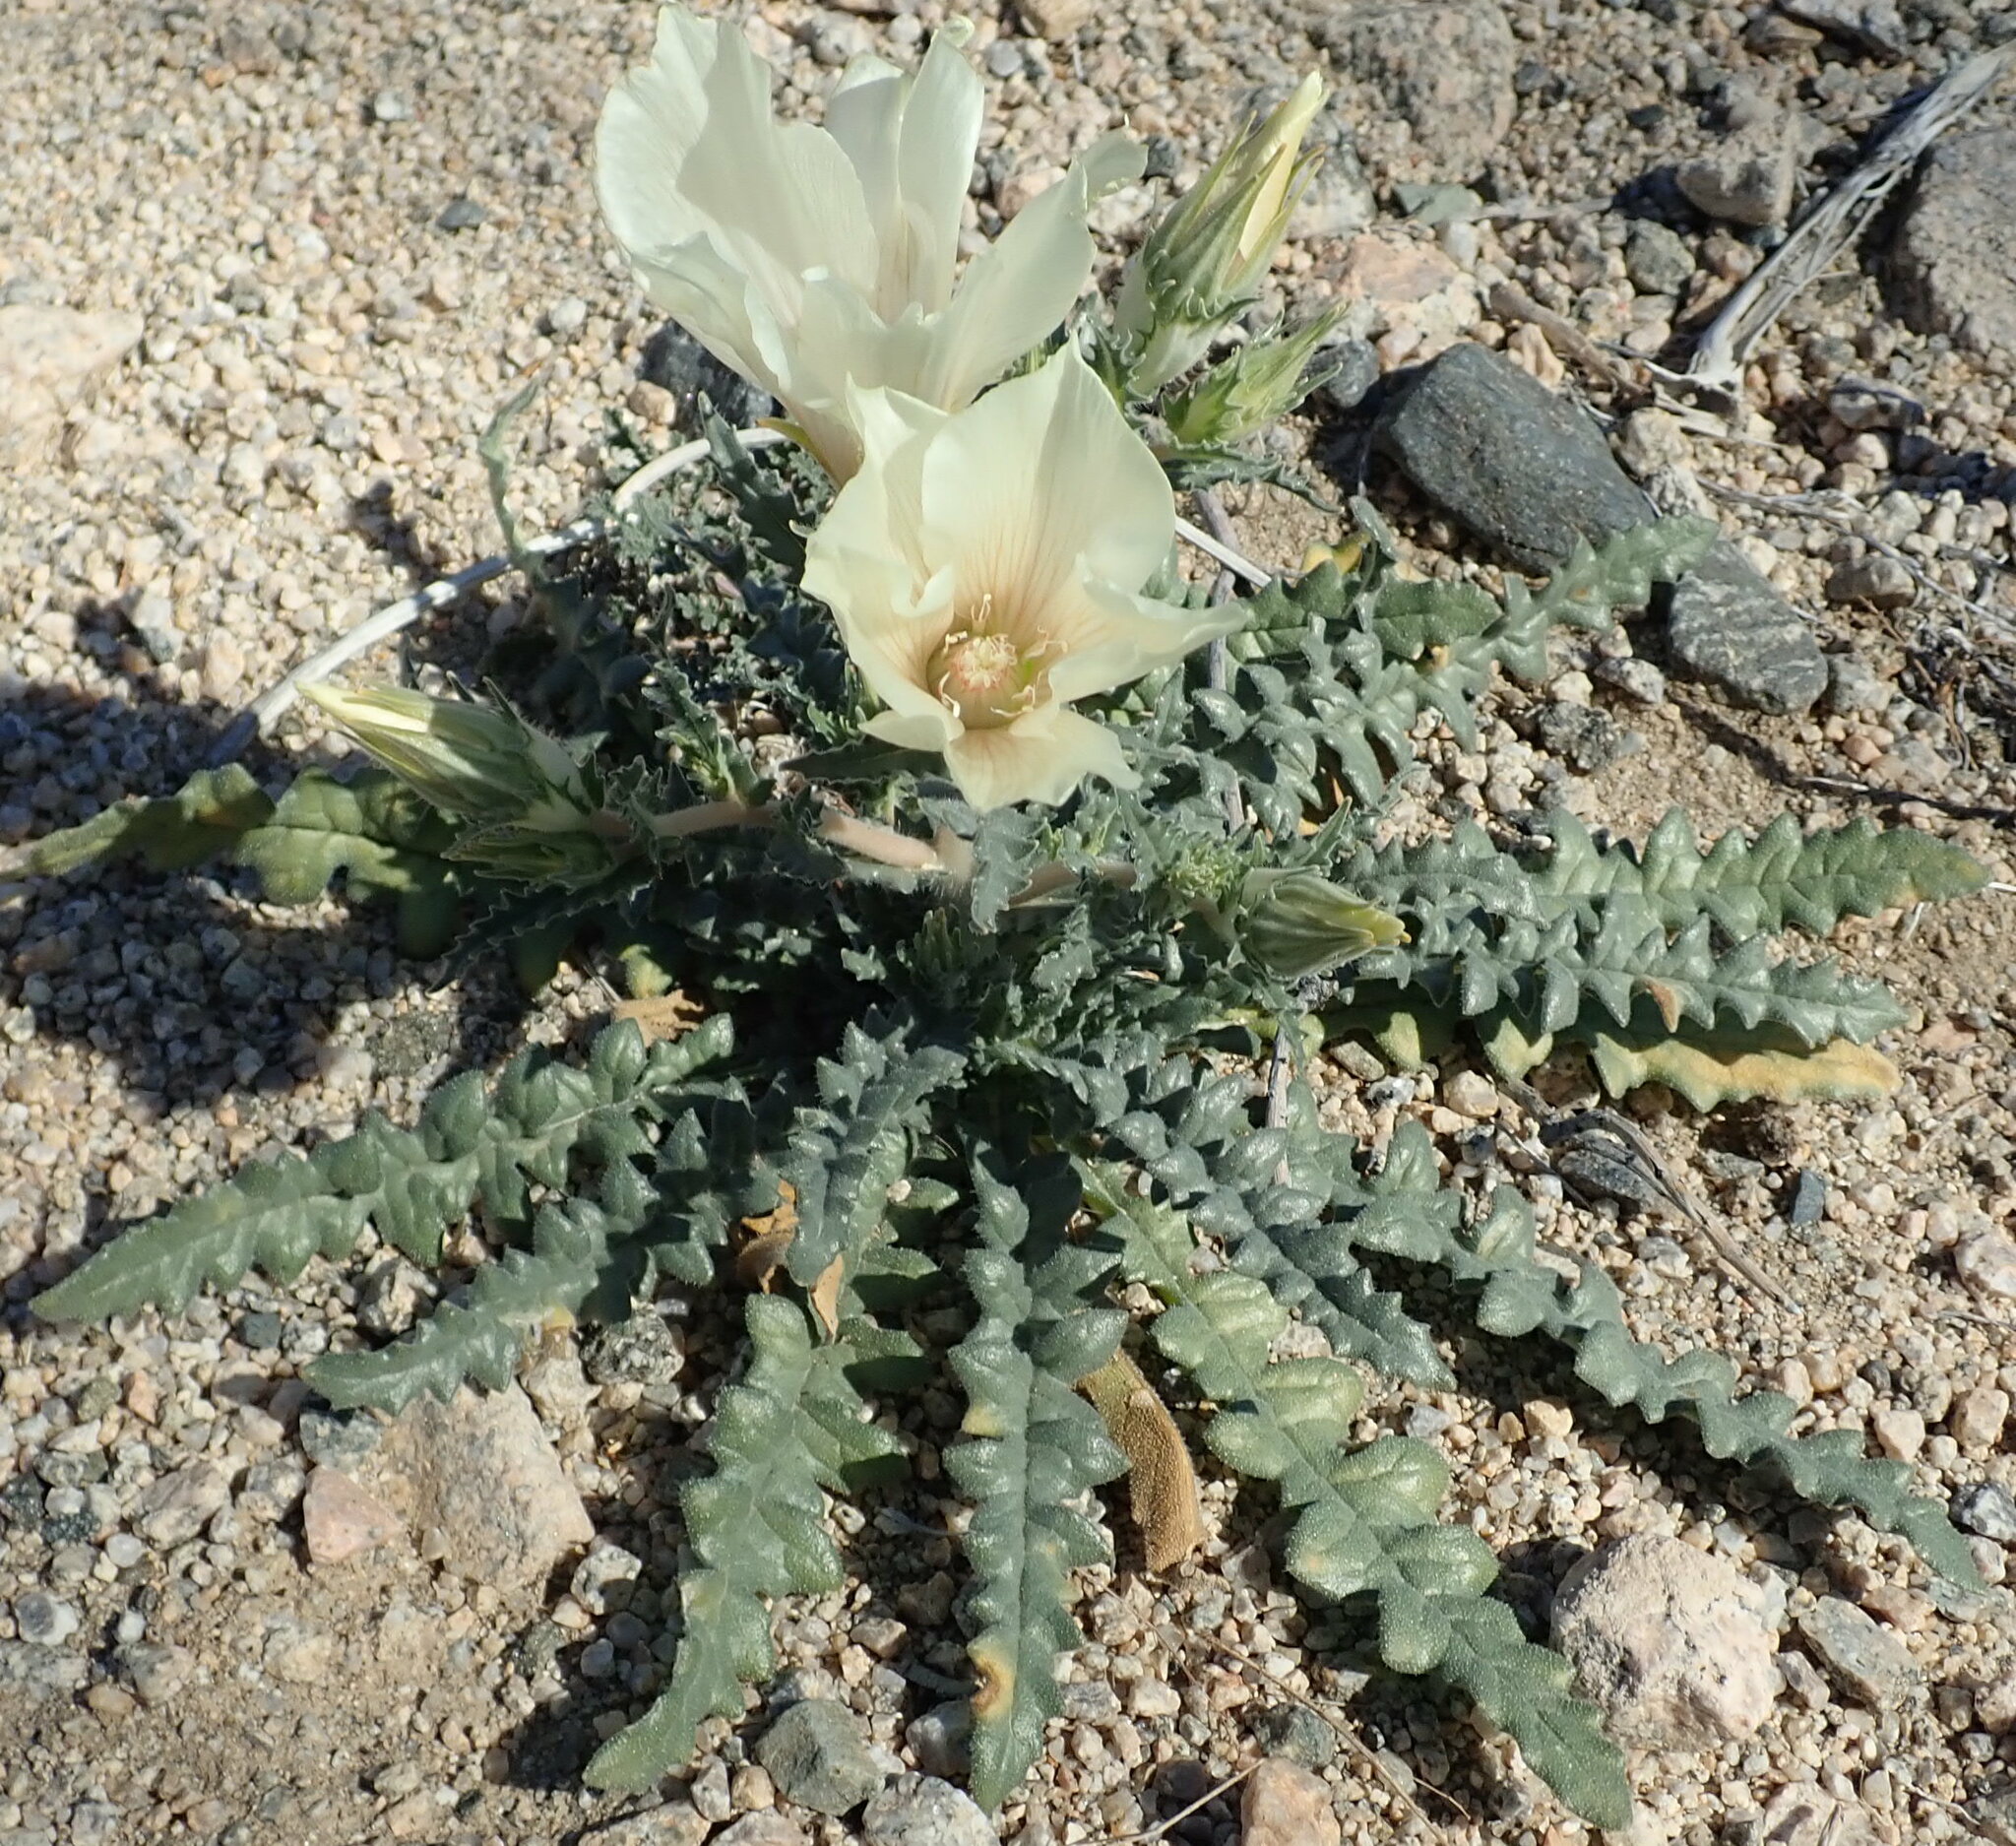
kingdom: Plantae
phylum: Tracheophyta
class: Magnoliopsida
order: Cornales
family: Loasaceae
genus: Mentzelia
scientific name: Mentzelia involucrata
